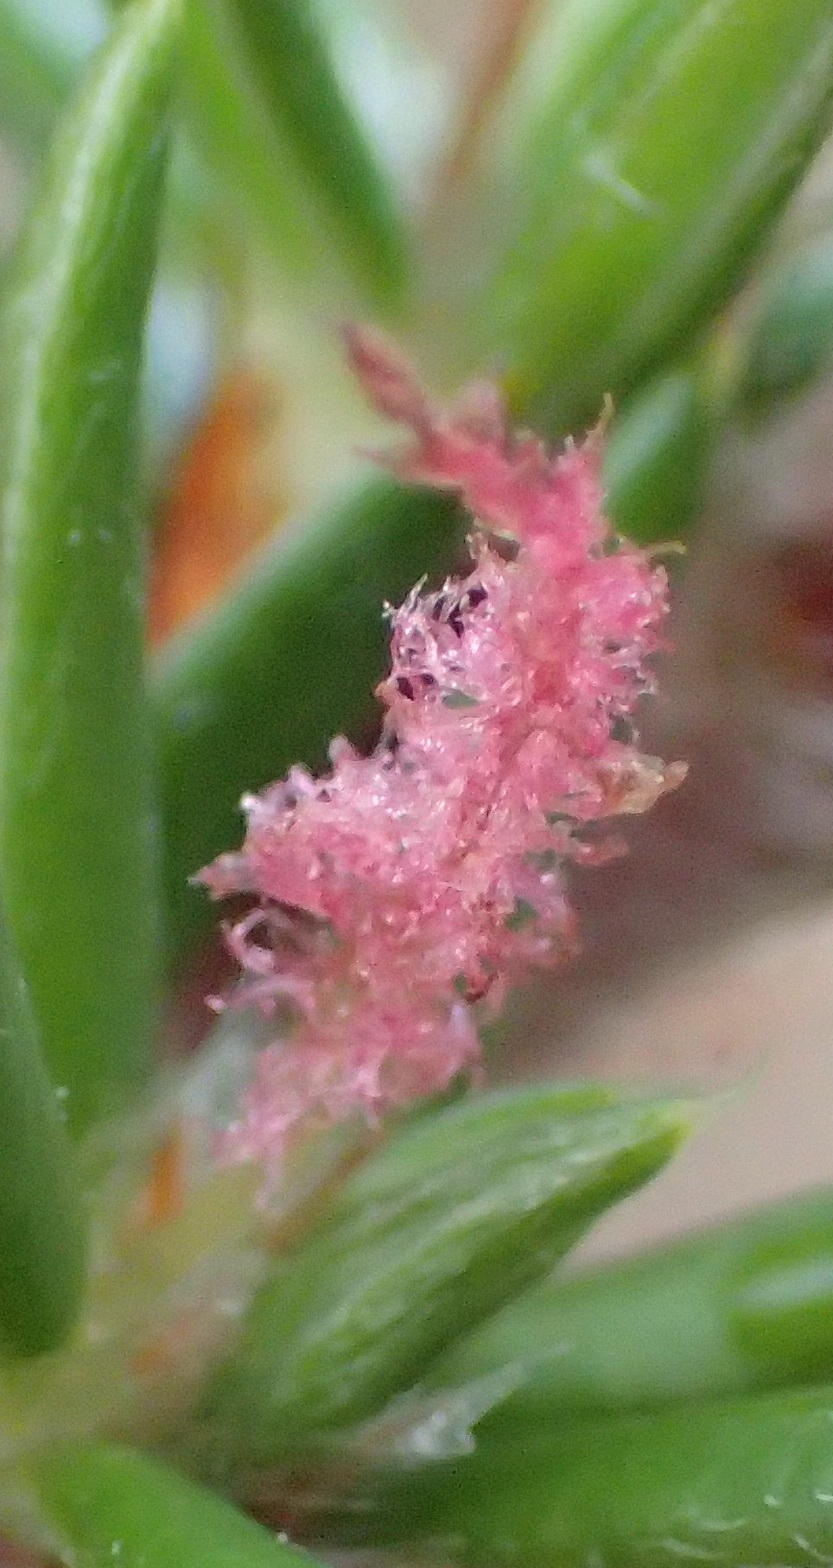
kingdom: Plantae
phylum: Tracheophyta
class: Magnoliopsida
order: Rosales
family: Rosaceae
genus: Cliffortia
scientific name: Cliffortia stricta
